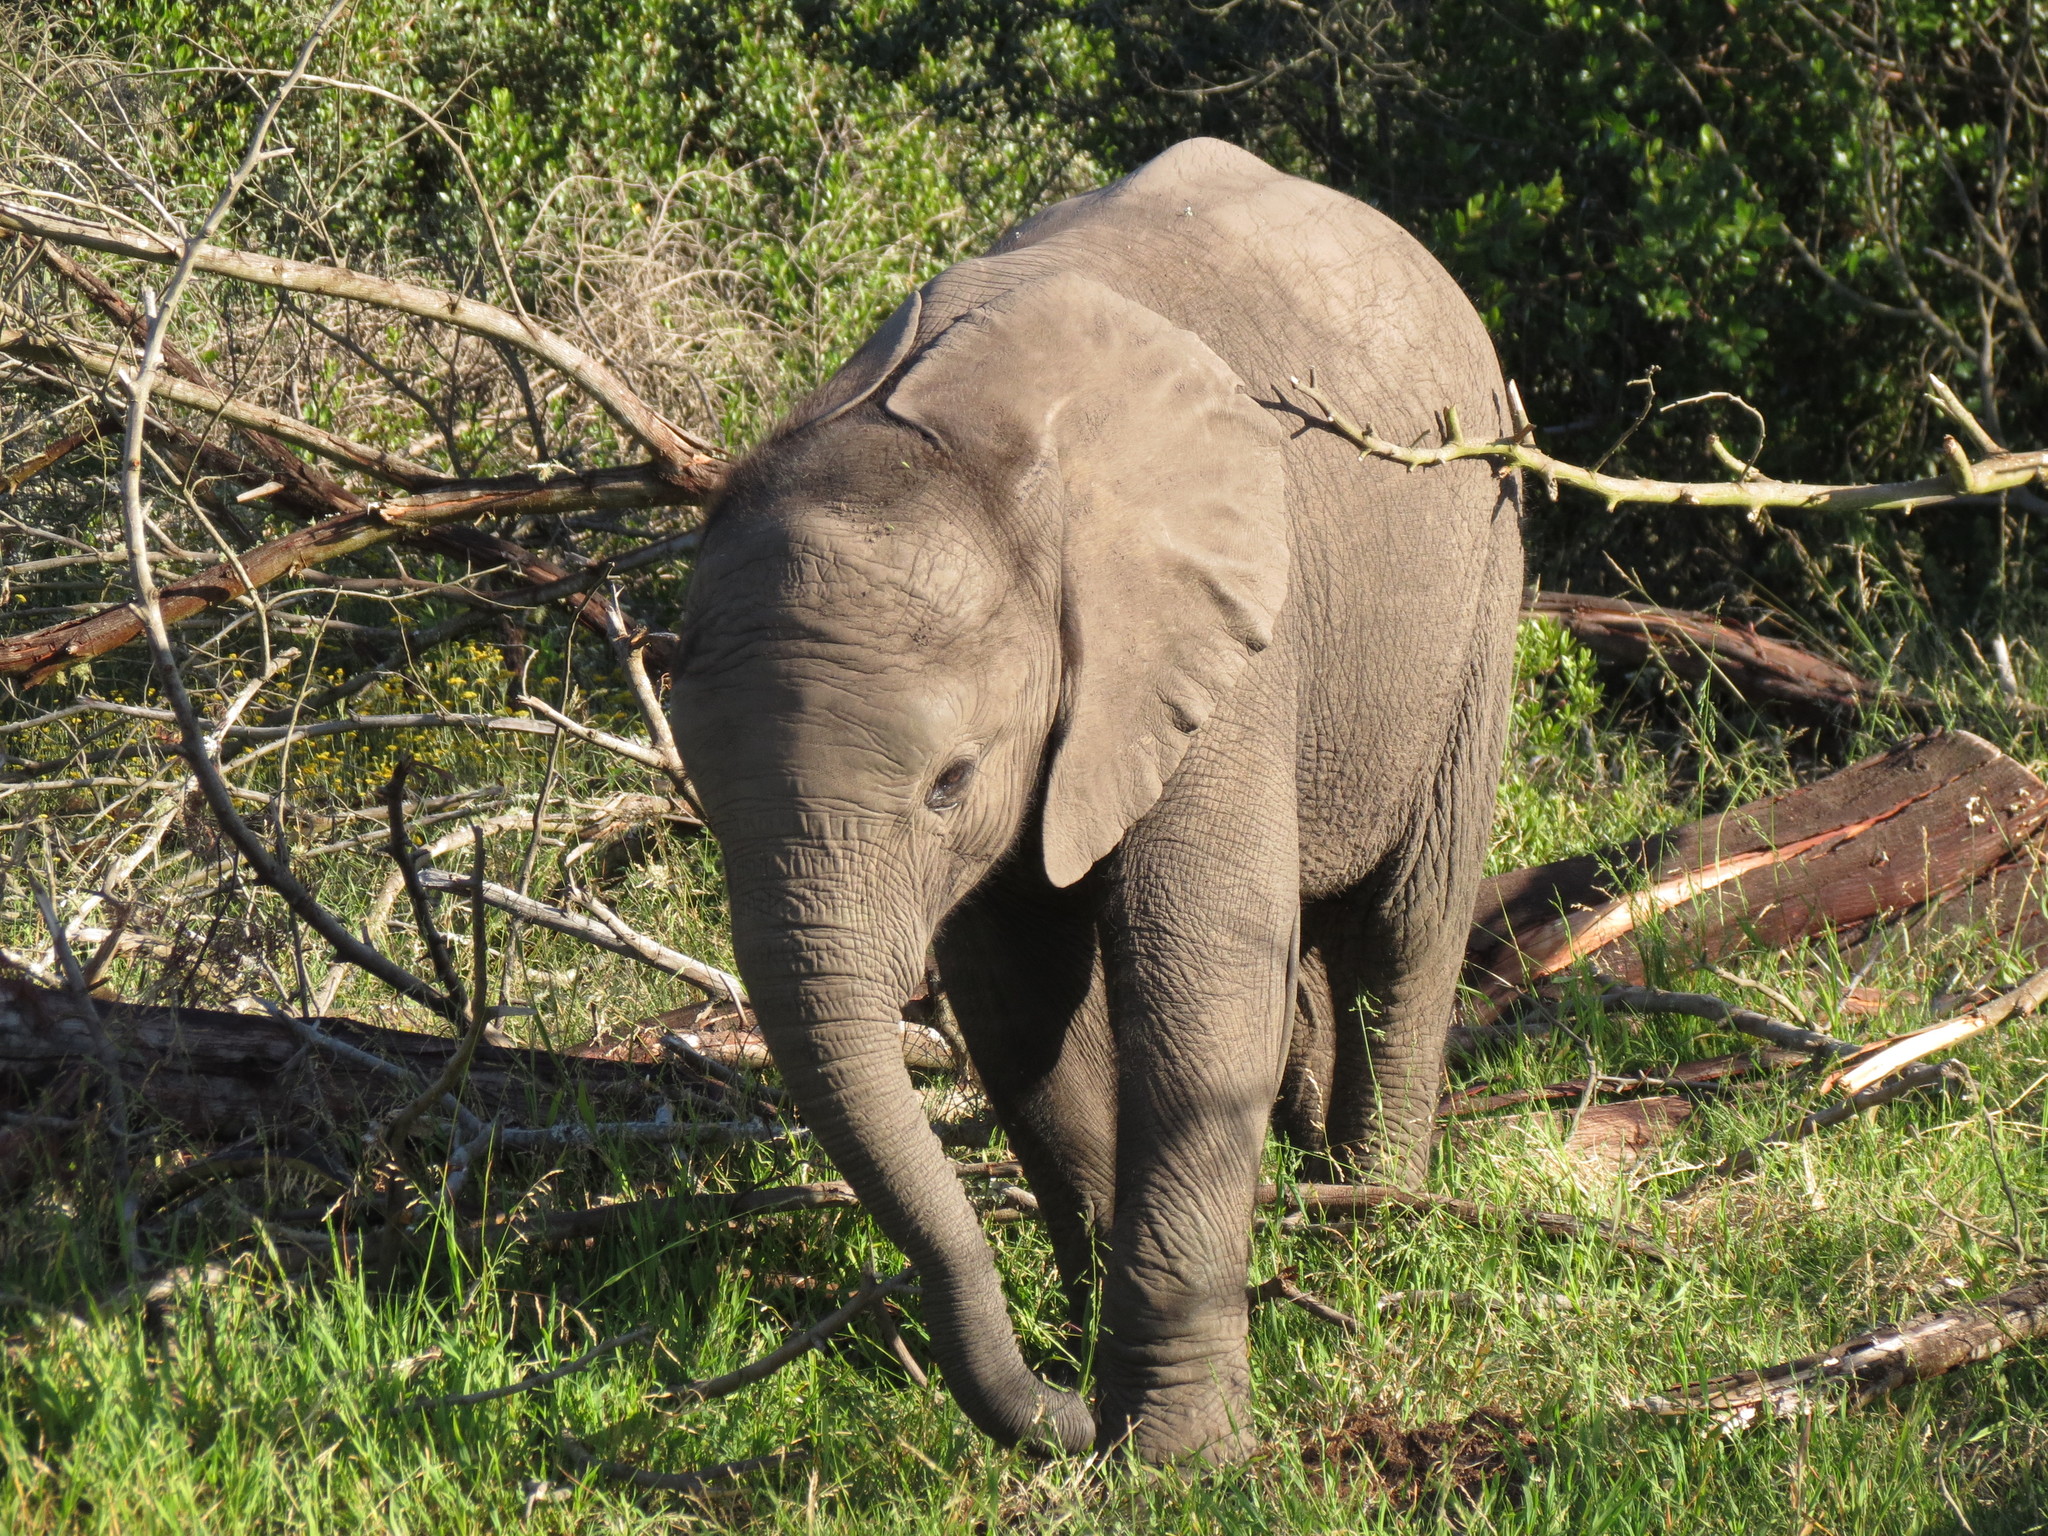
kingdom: Animalia
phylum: Chordata
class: Mammalia
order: Proboscidea
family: Elephantidae
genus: Loxodonta
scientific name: Loxodonta africana
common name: African elephant
